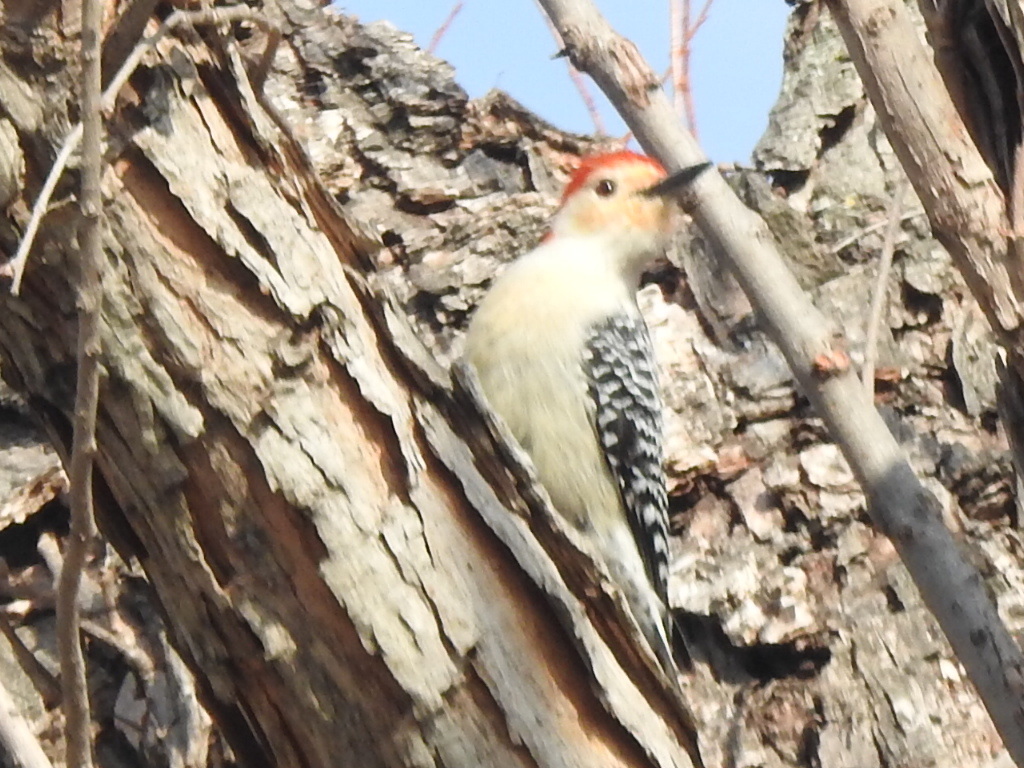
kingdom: Animalia
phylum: Chordata
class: Aves
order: Piciformes
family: Picidae
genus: Melanerpes
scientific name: Melanerpes carolinus
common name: Red-bellied woodpecker
